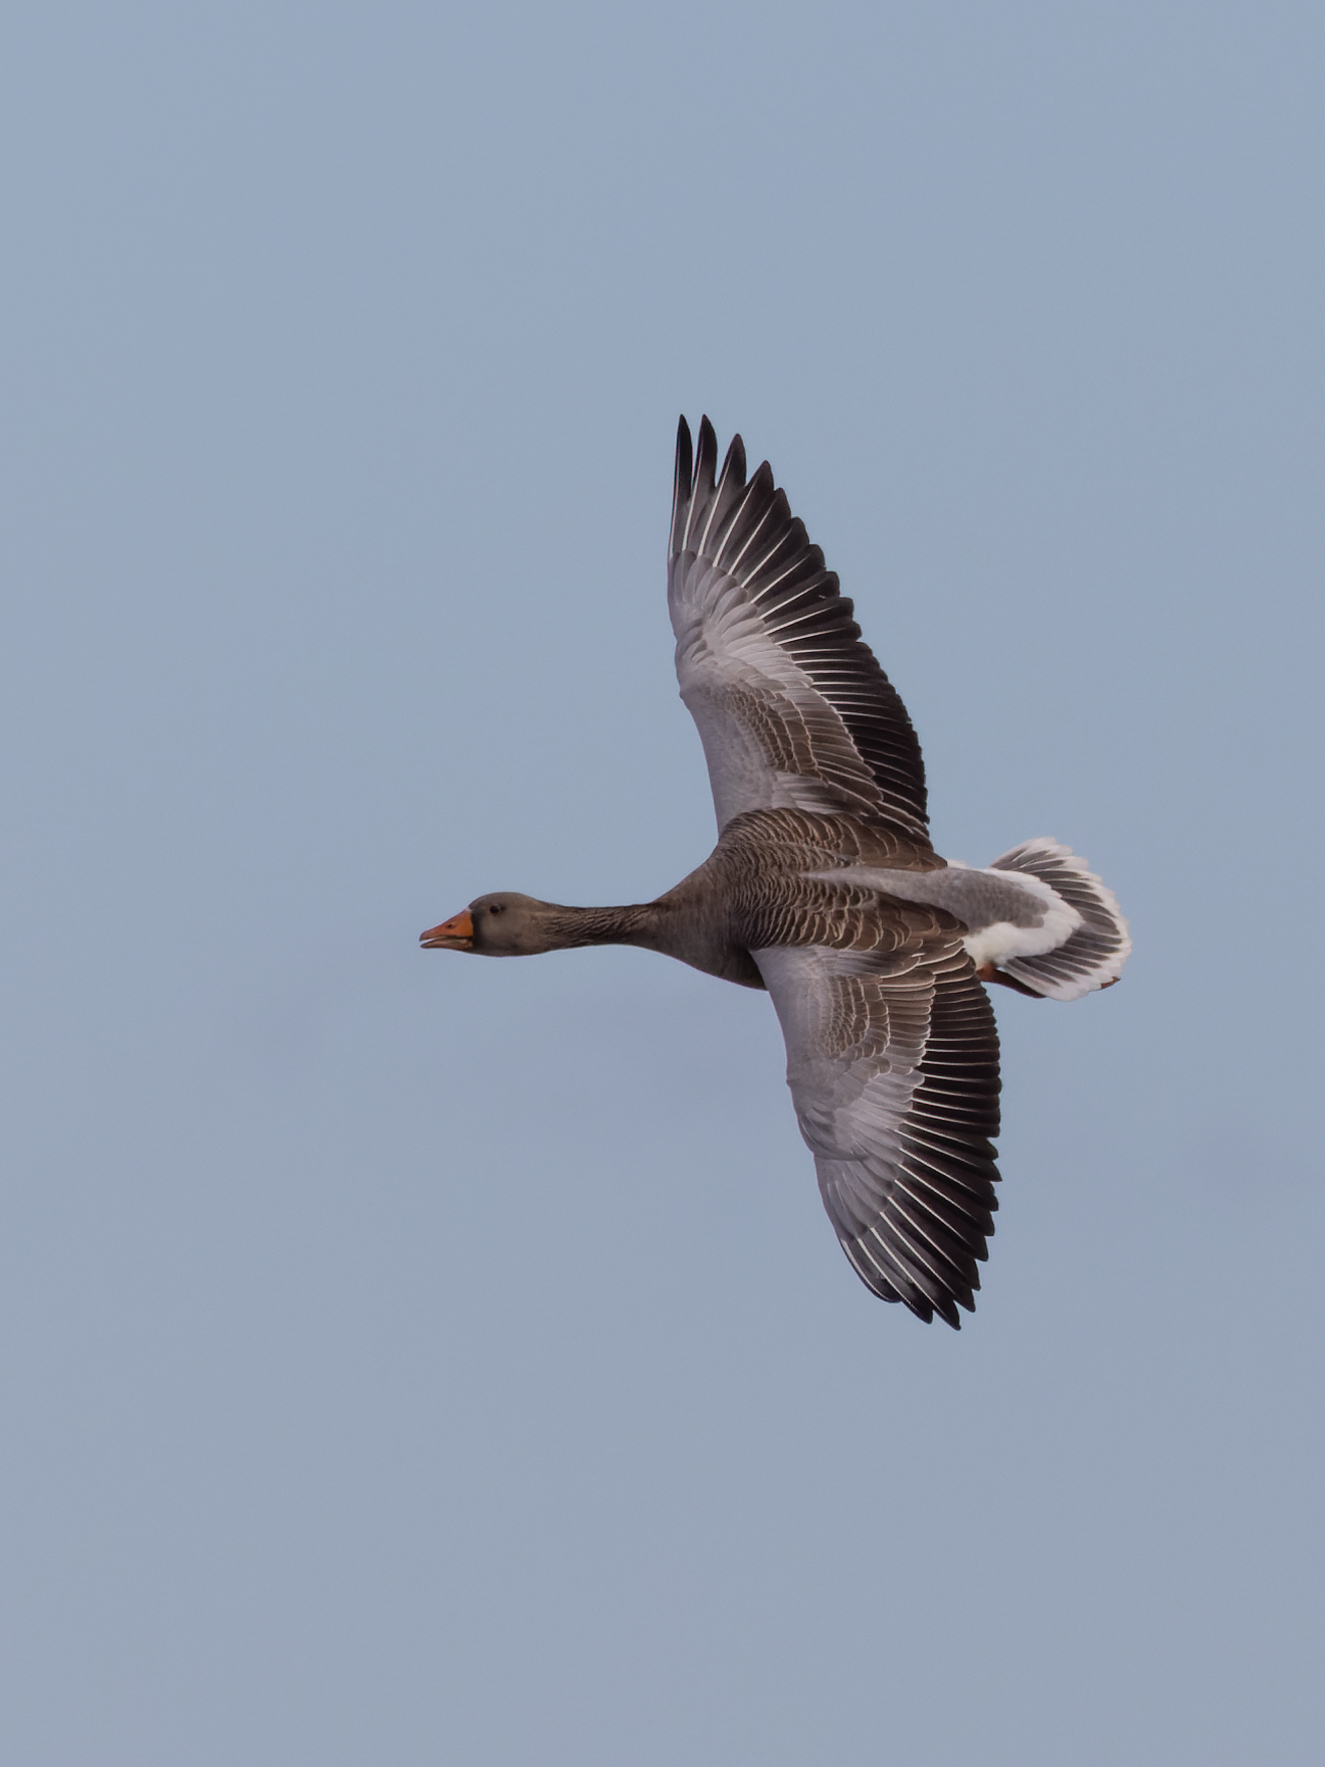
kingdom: Animalia
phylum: Chordata
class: Aves
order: Anseriformes
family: Anatidae
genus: Anser
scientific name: Anser anser
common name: Greylag goose
